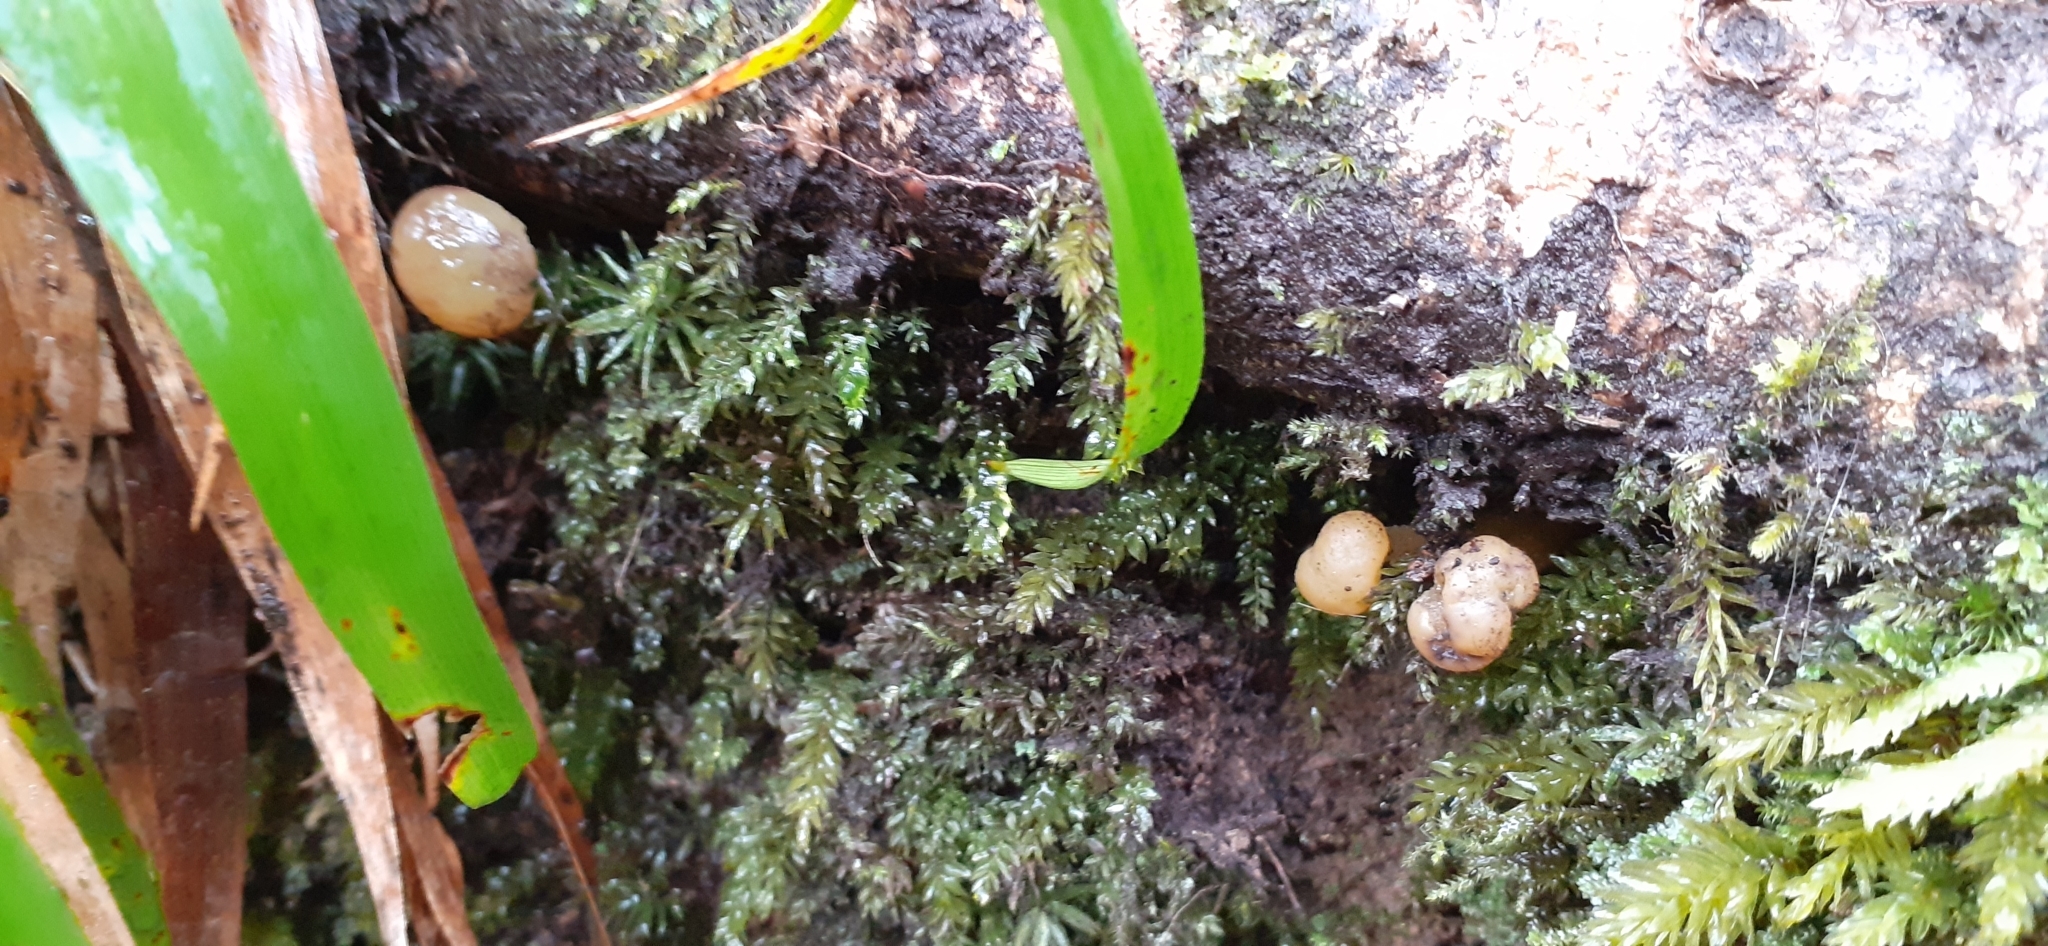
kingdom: Fungi
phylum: Ascomycota
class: Leotiomycetes
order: Leotiales
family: Leotiaceae
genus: Leotia
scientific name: Leotia lubrica
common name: Jellybaby
